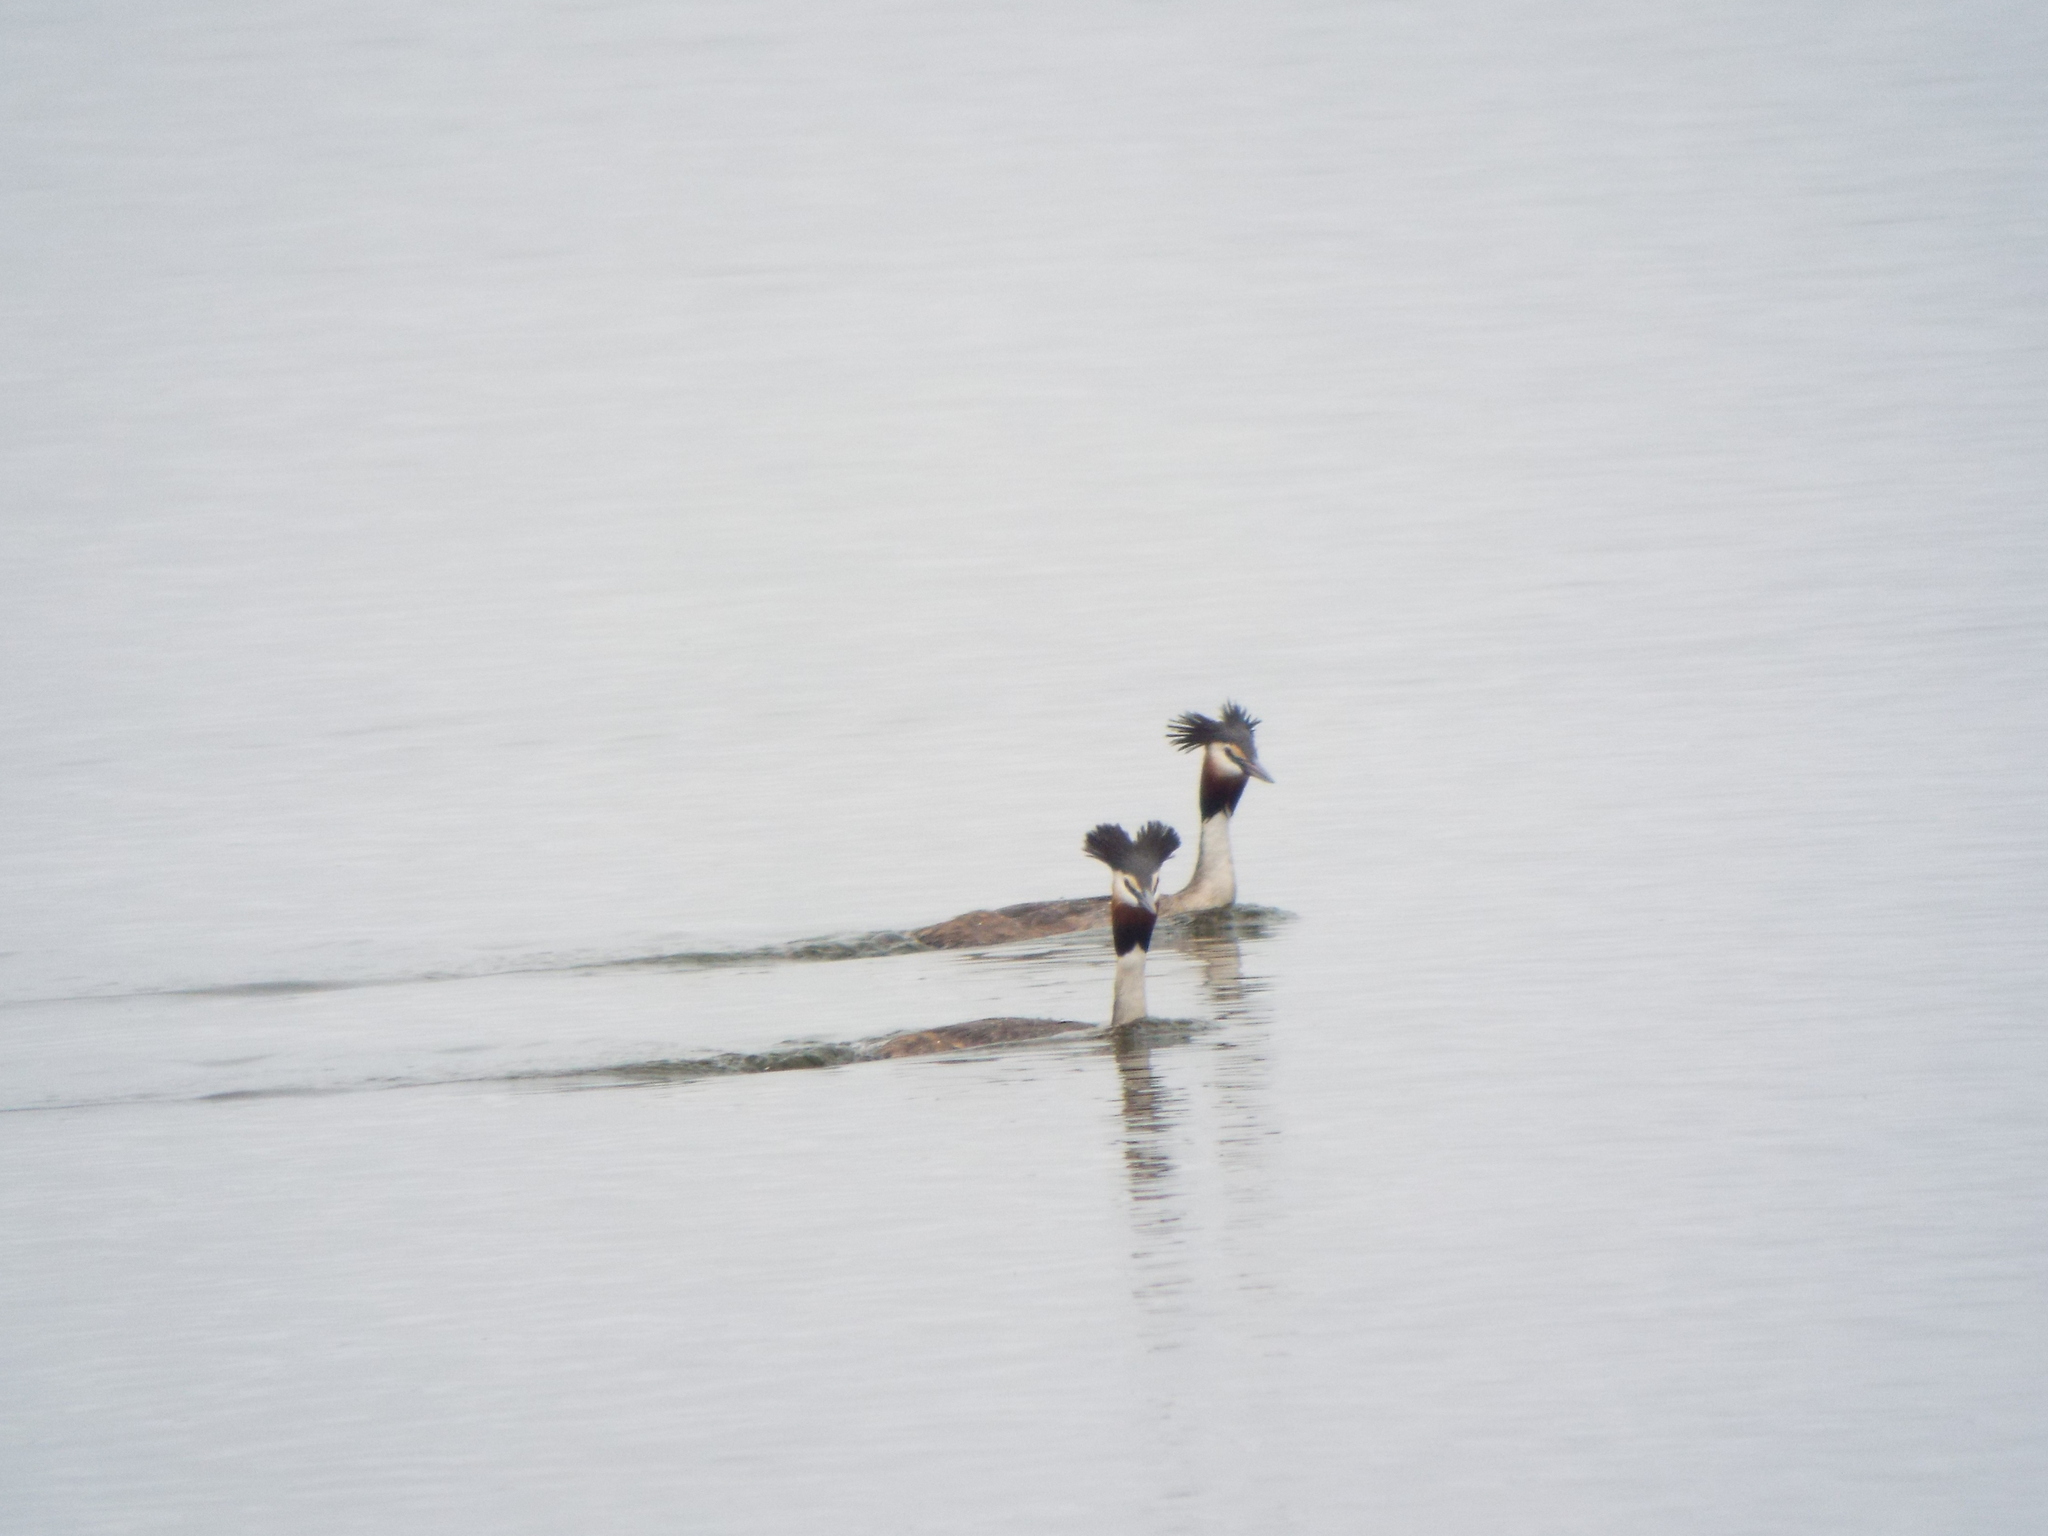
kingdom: Animalia
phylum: Chordata
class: Aves
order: Podicipediformes
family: Podicipedidae
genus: Podiceps
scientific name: Podiceps cristatus
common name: Great crested grebe
